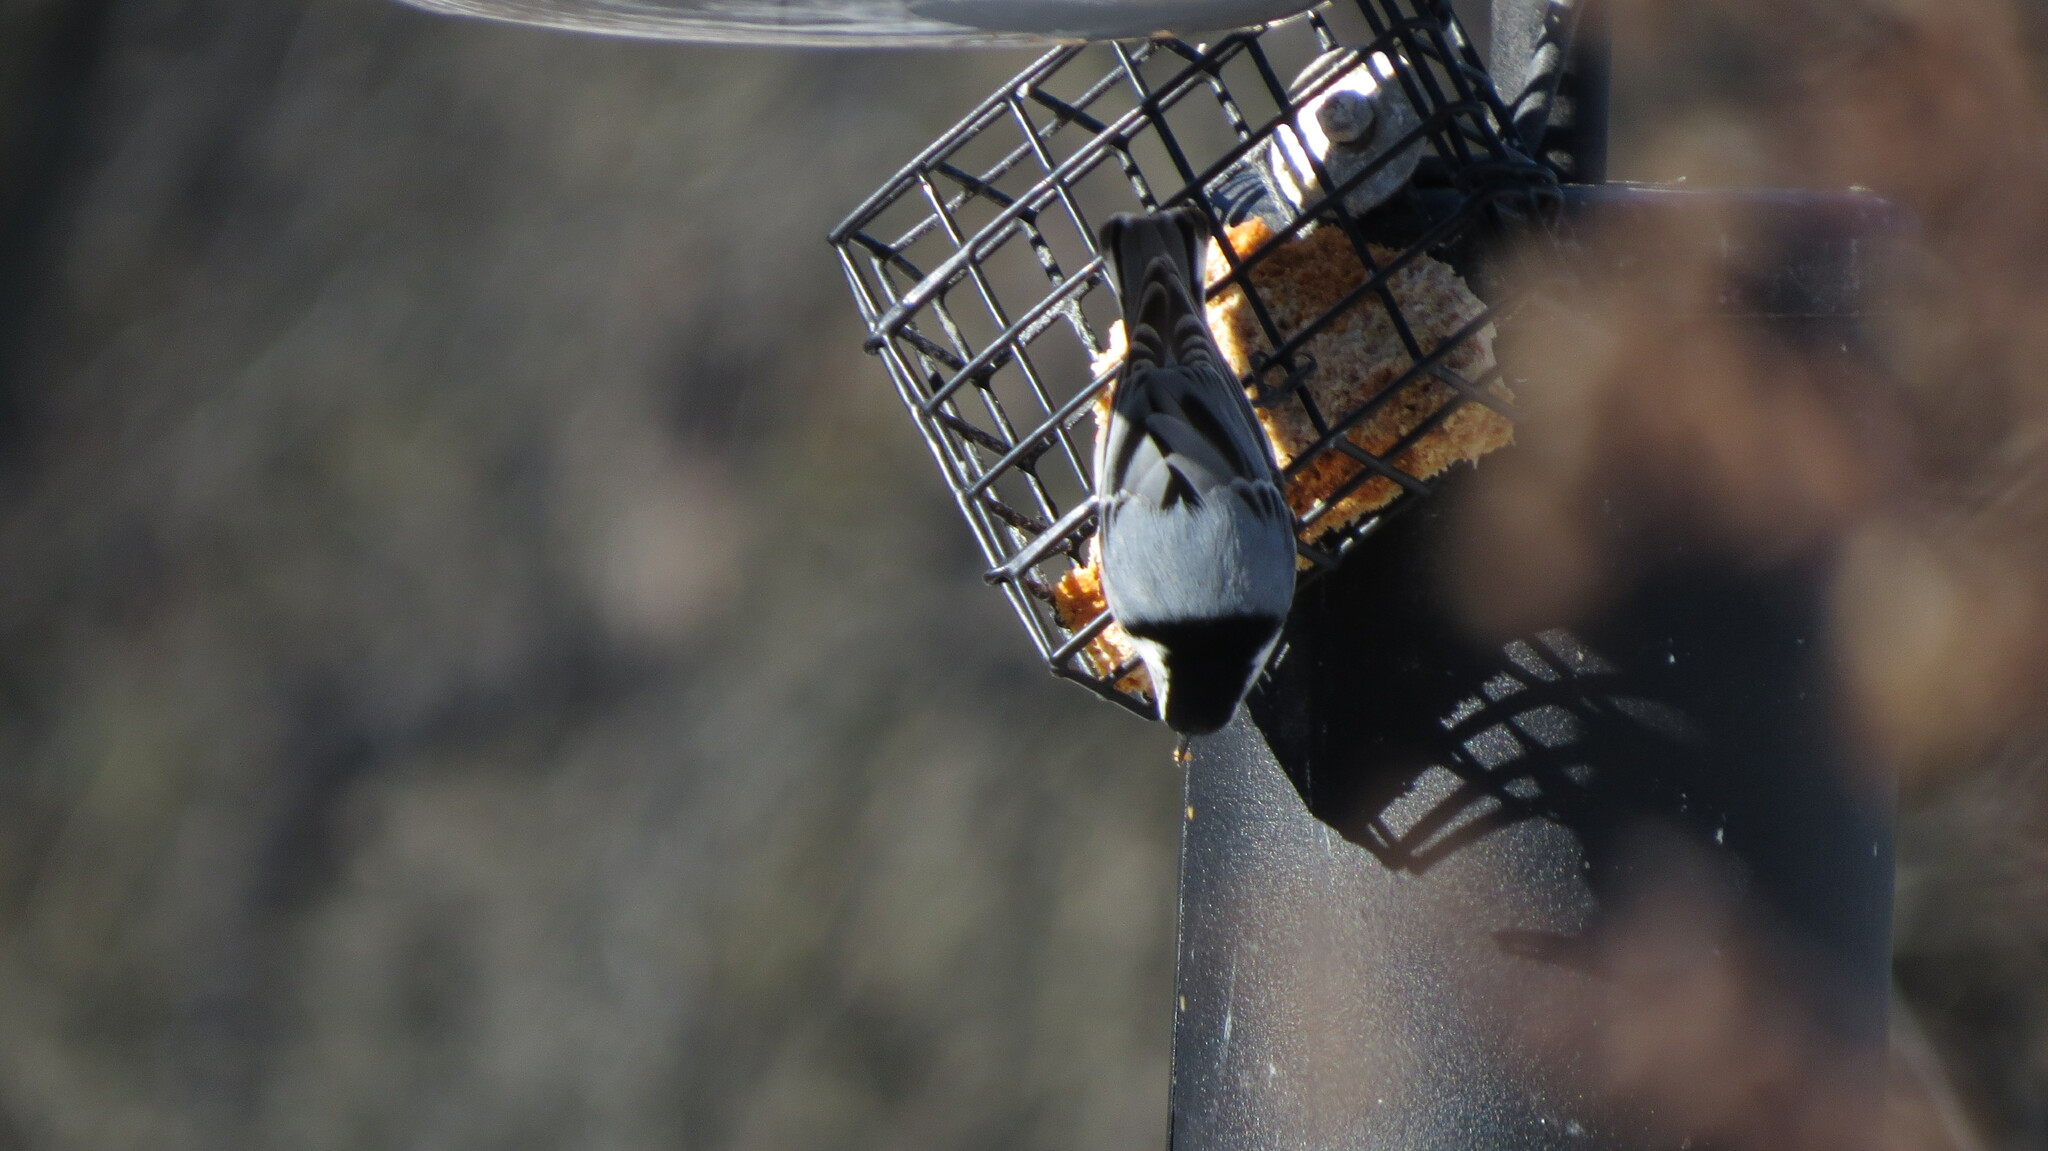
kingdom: Animalia
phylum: Chordata
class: Aves
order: Passeriformes
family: Sittidae
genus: Sitta
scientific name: Sitta carolinensis
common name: White-breasted nuthatch
